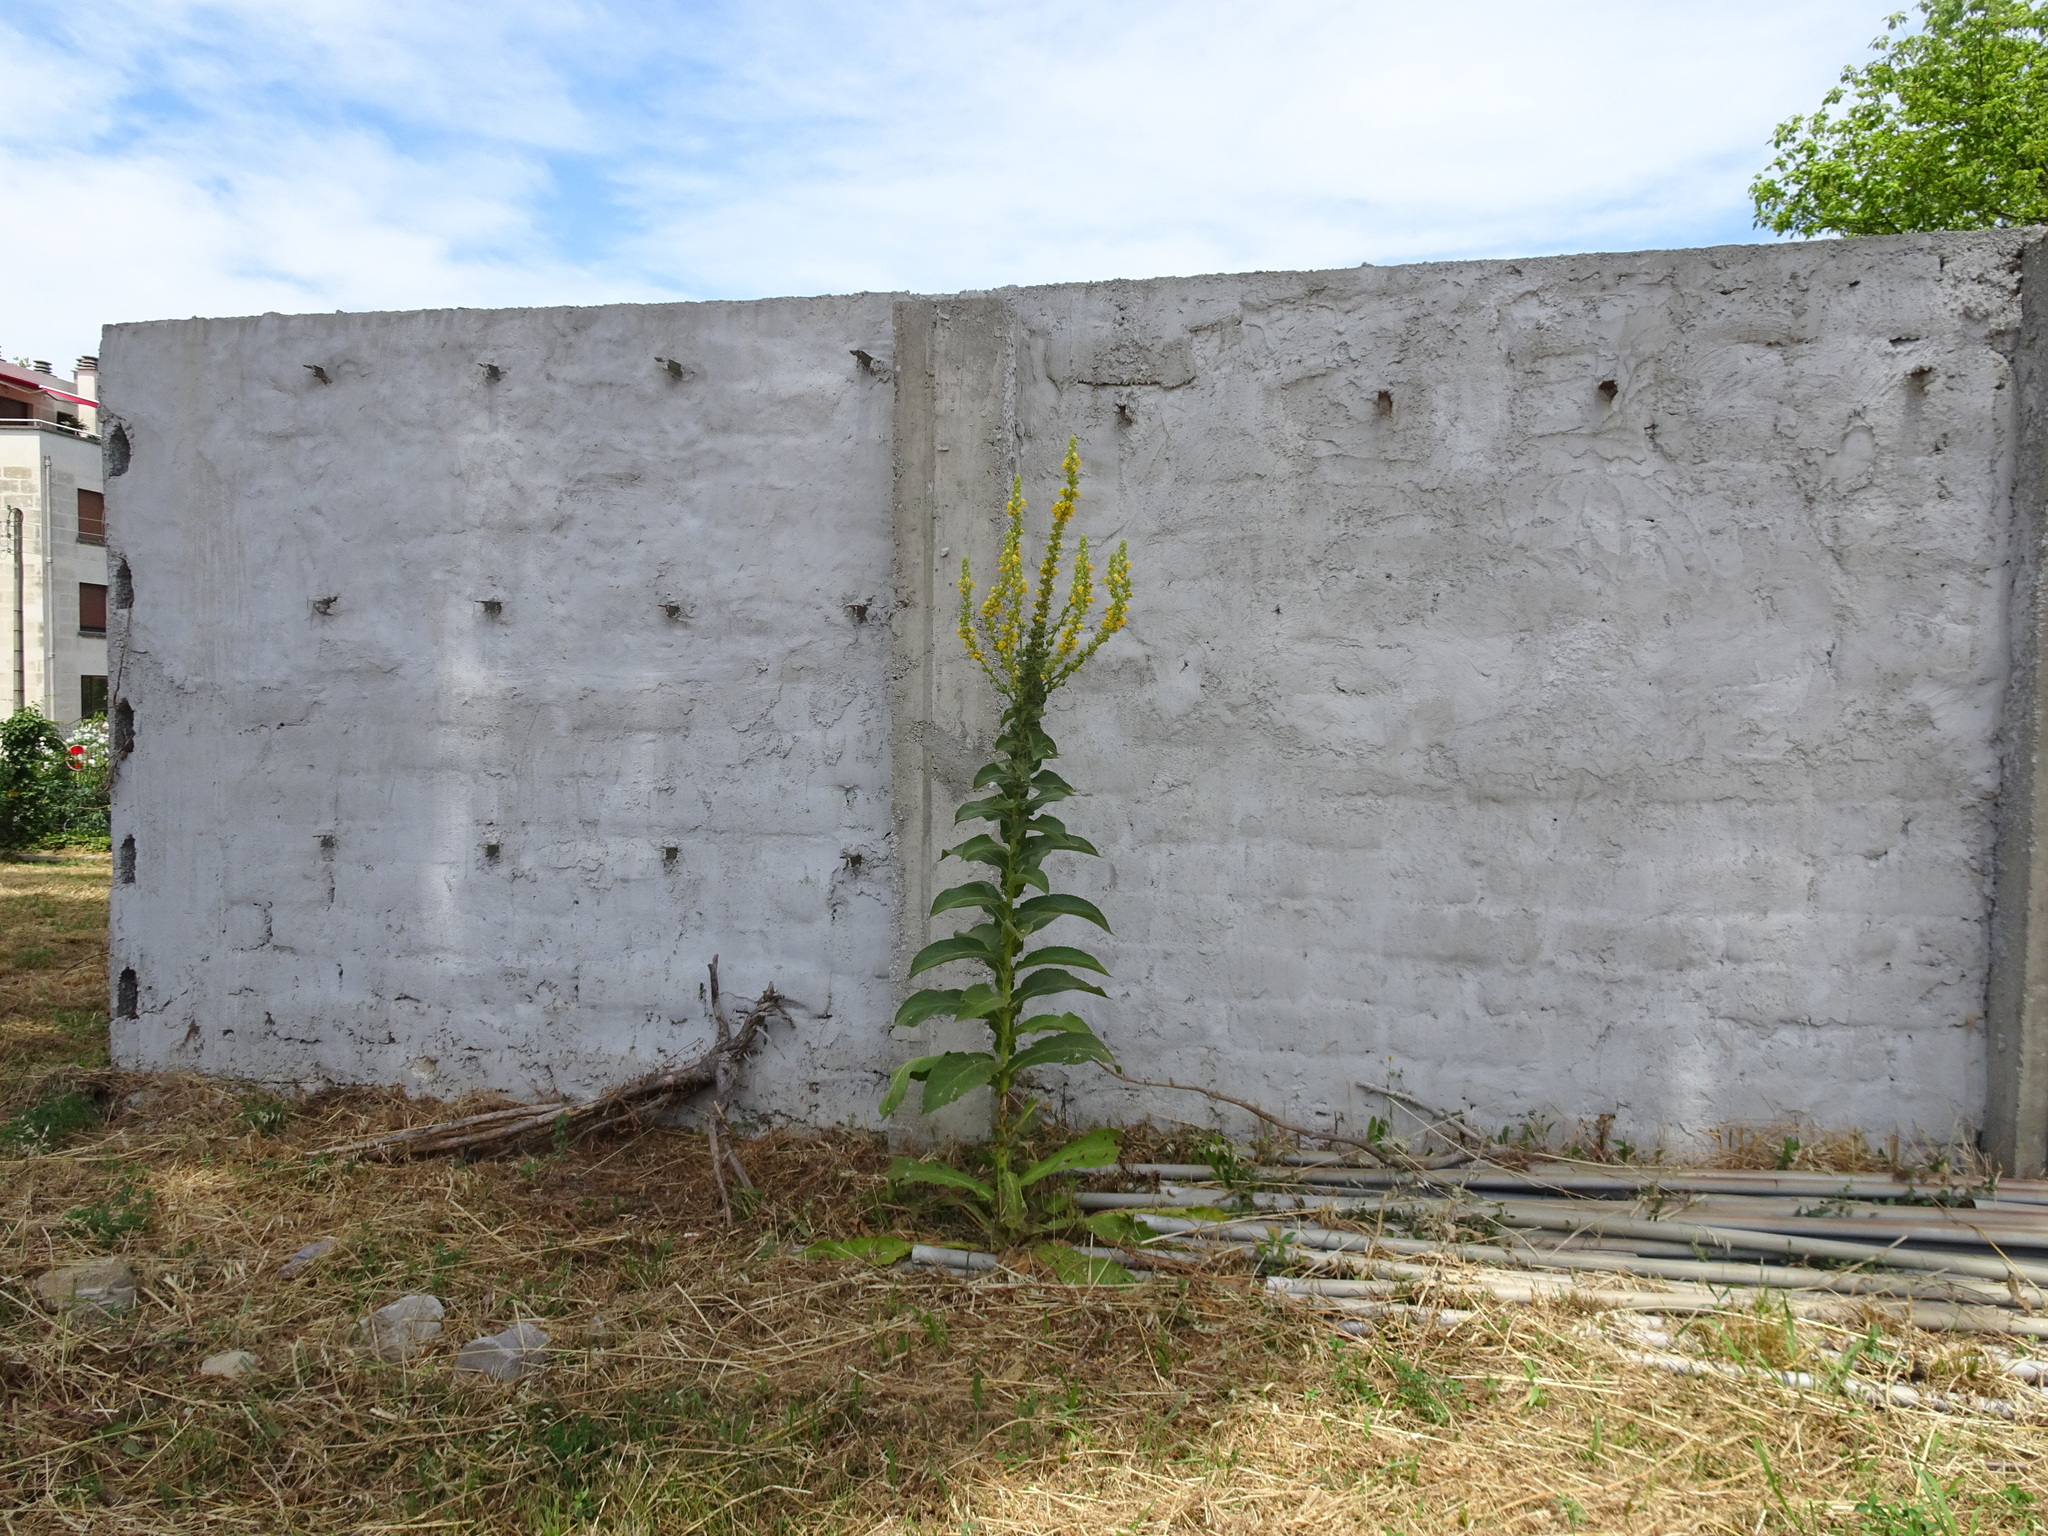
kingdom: Plantae
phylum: Tracheophyta
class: Magnoliopsida
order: Lamiales
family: Scrophulariaceae
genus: Verbascum
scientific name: Verbascum pulverulentum
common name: Broad-leaf mullein
